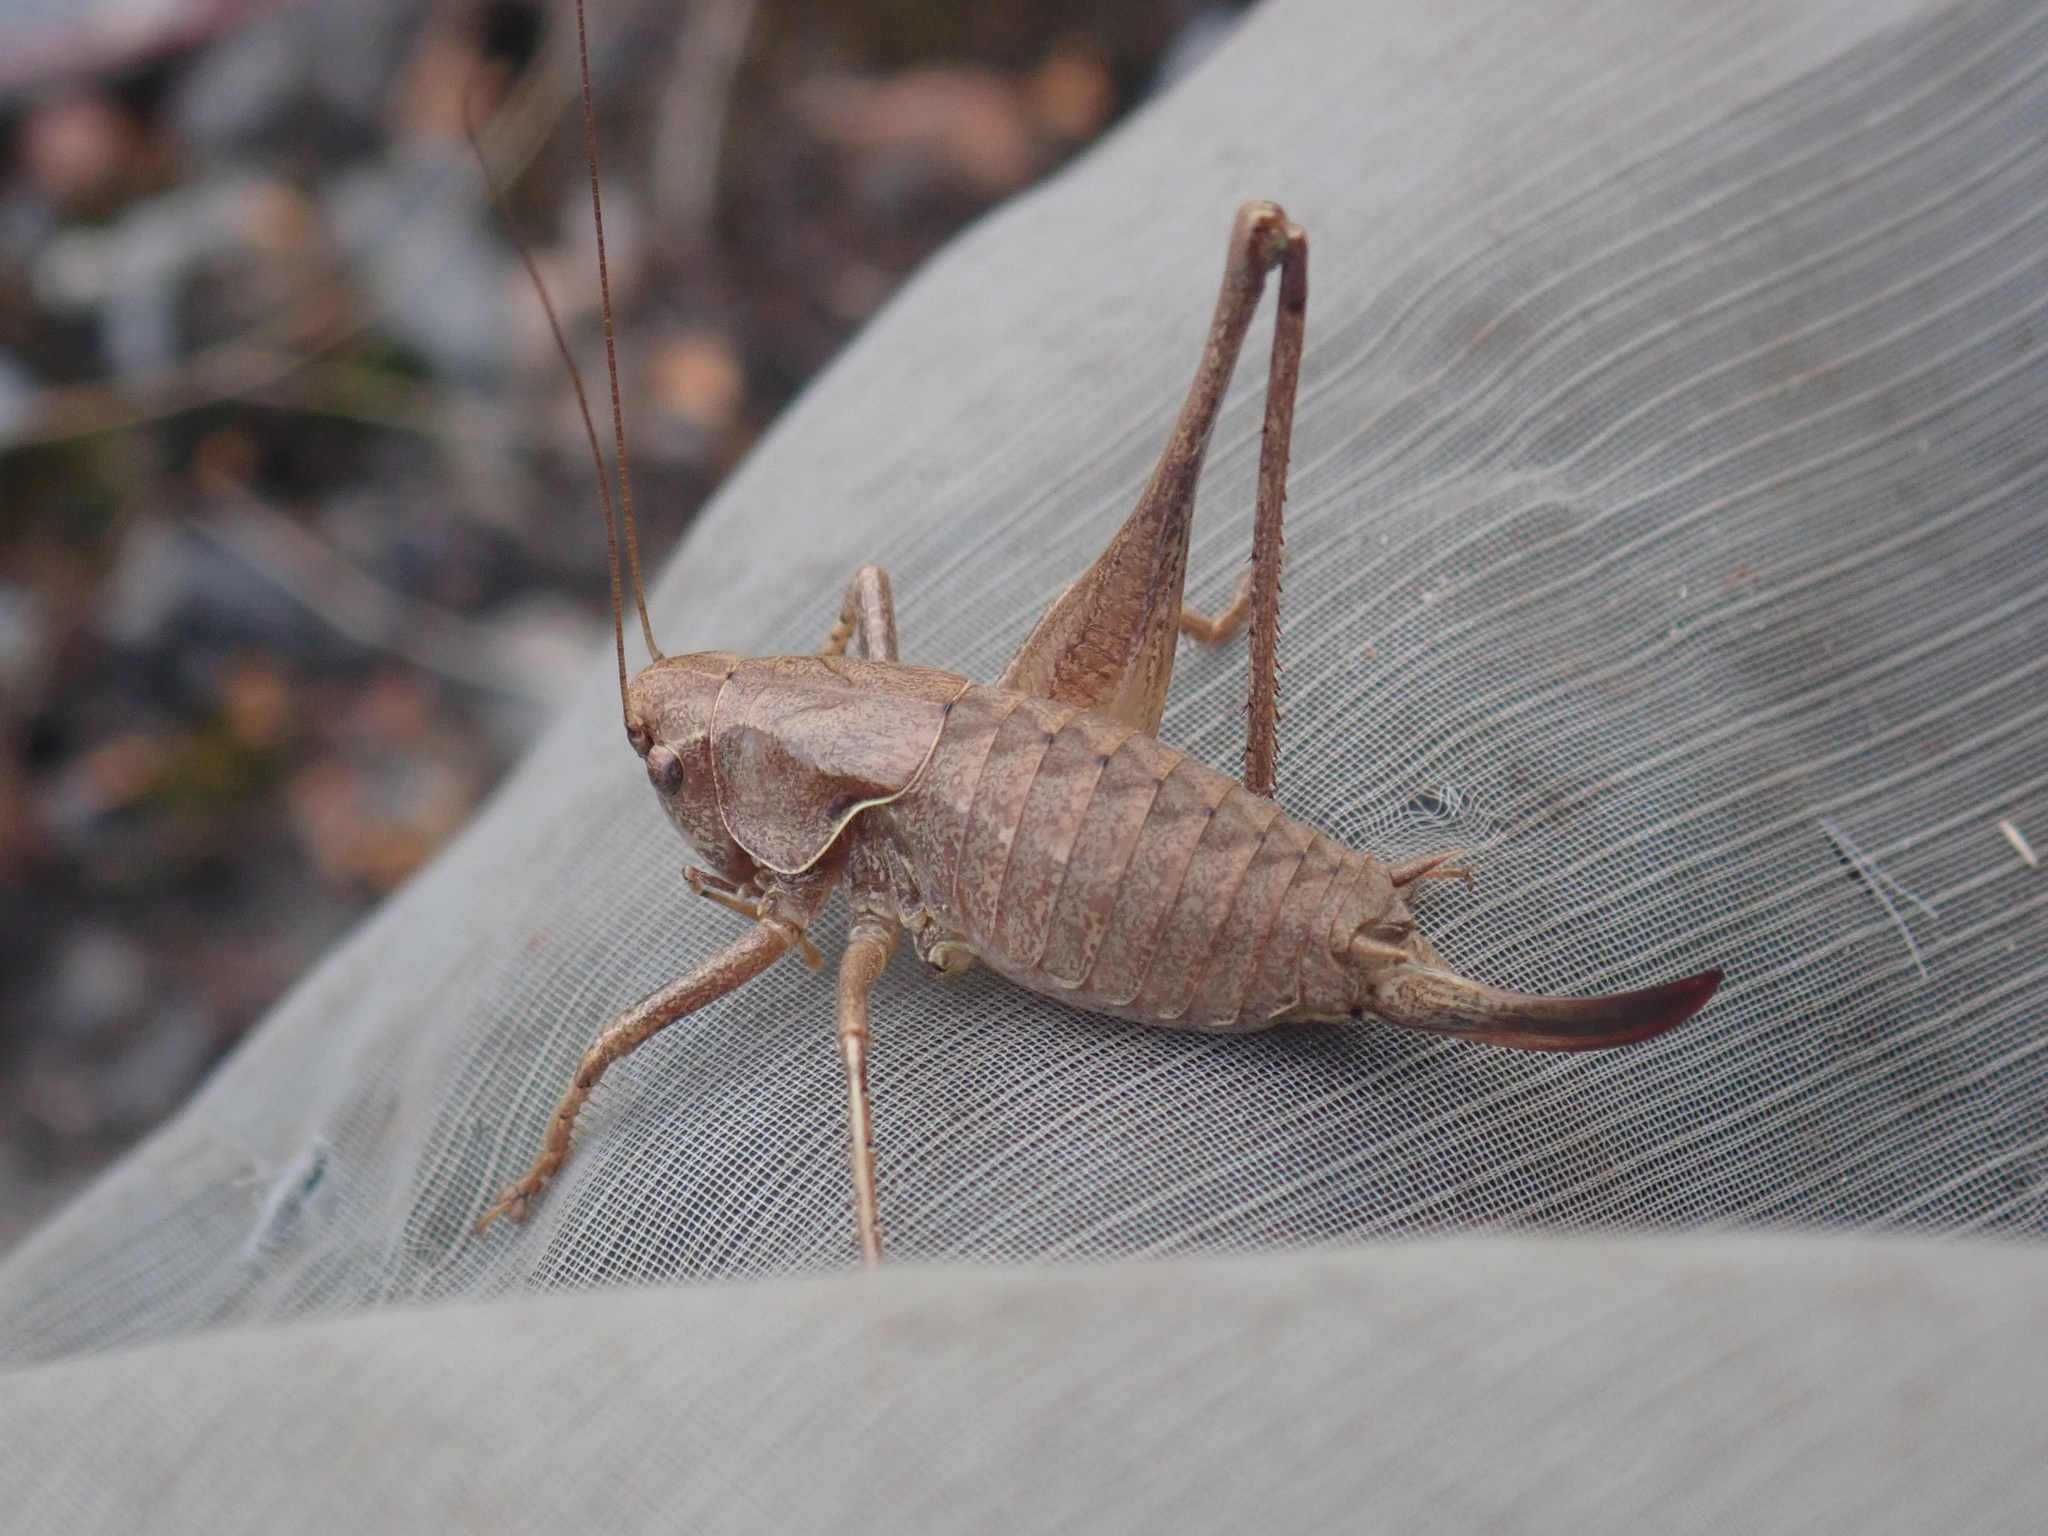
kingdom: Animalia
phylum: Arthropoda
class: Insecta
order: Orthoptera
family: Tettigoniidae
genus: Pholidoptera
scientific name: Pholidoptera griseoaptera
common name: Dark bush-cricket
